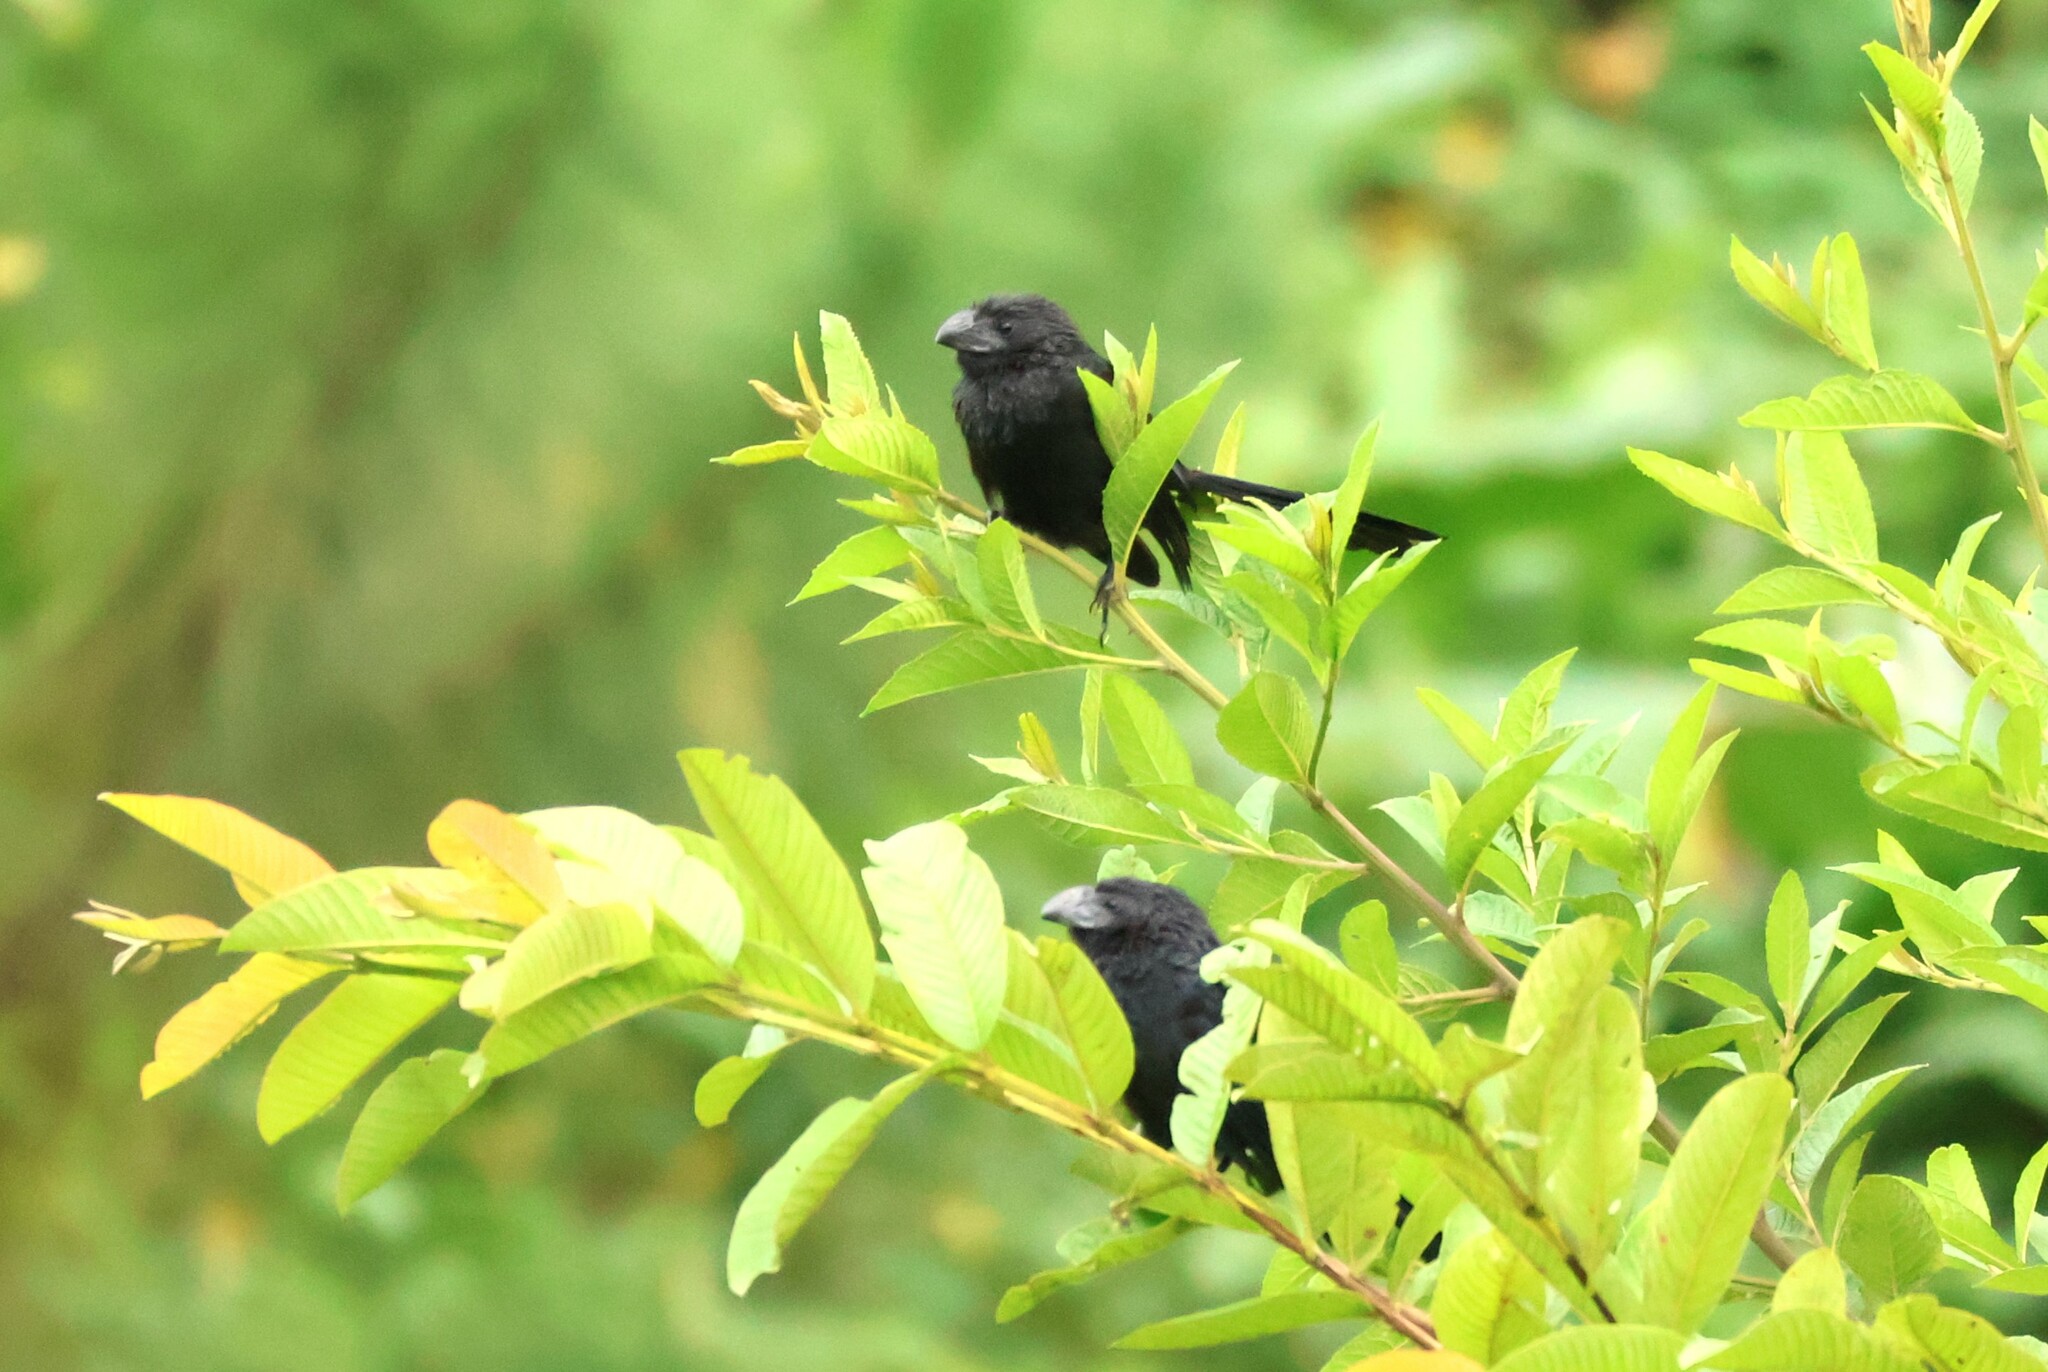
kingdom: Animalia
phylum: Chordata
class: Aves
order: Cuculiformes
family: Cuculidae
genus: Crotophaga
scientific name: Crotophaga sulcirostris
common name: Groove-billed ani
